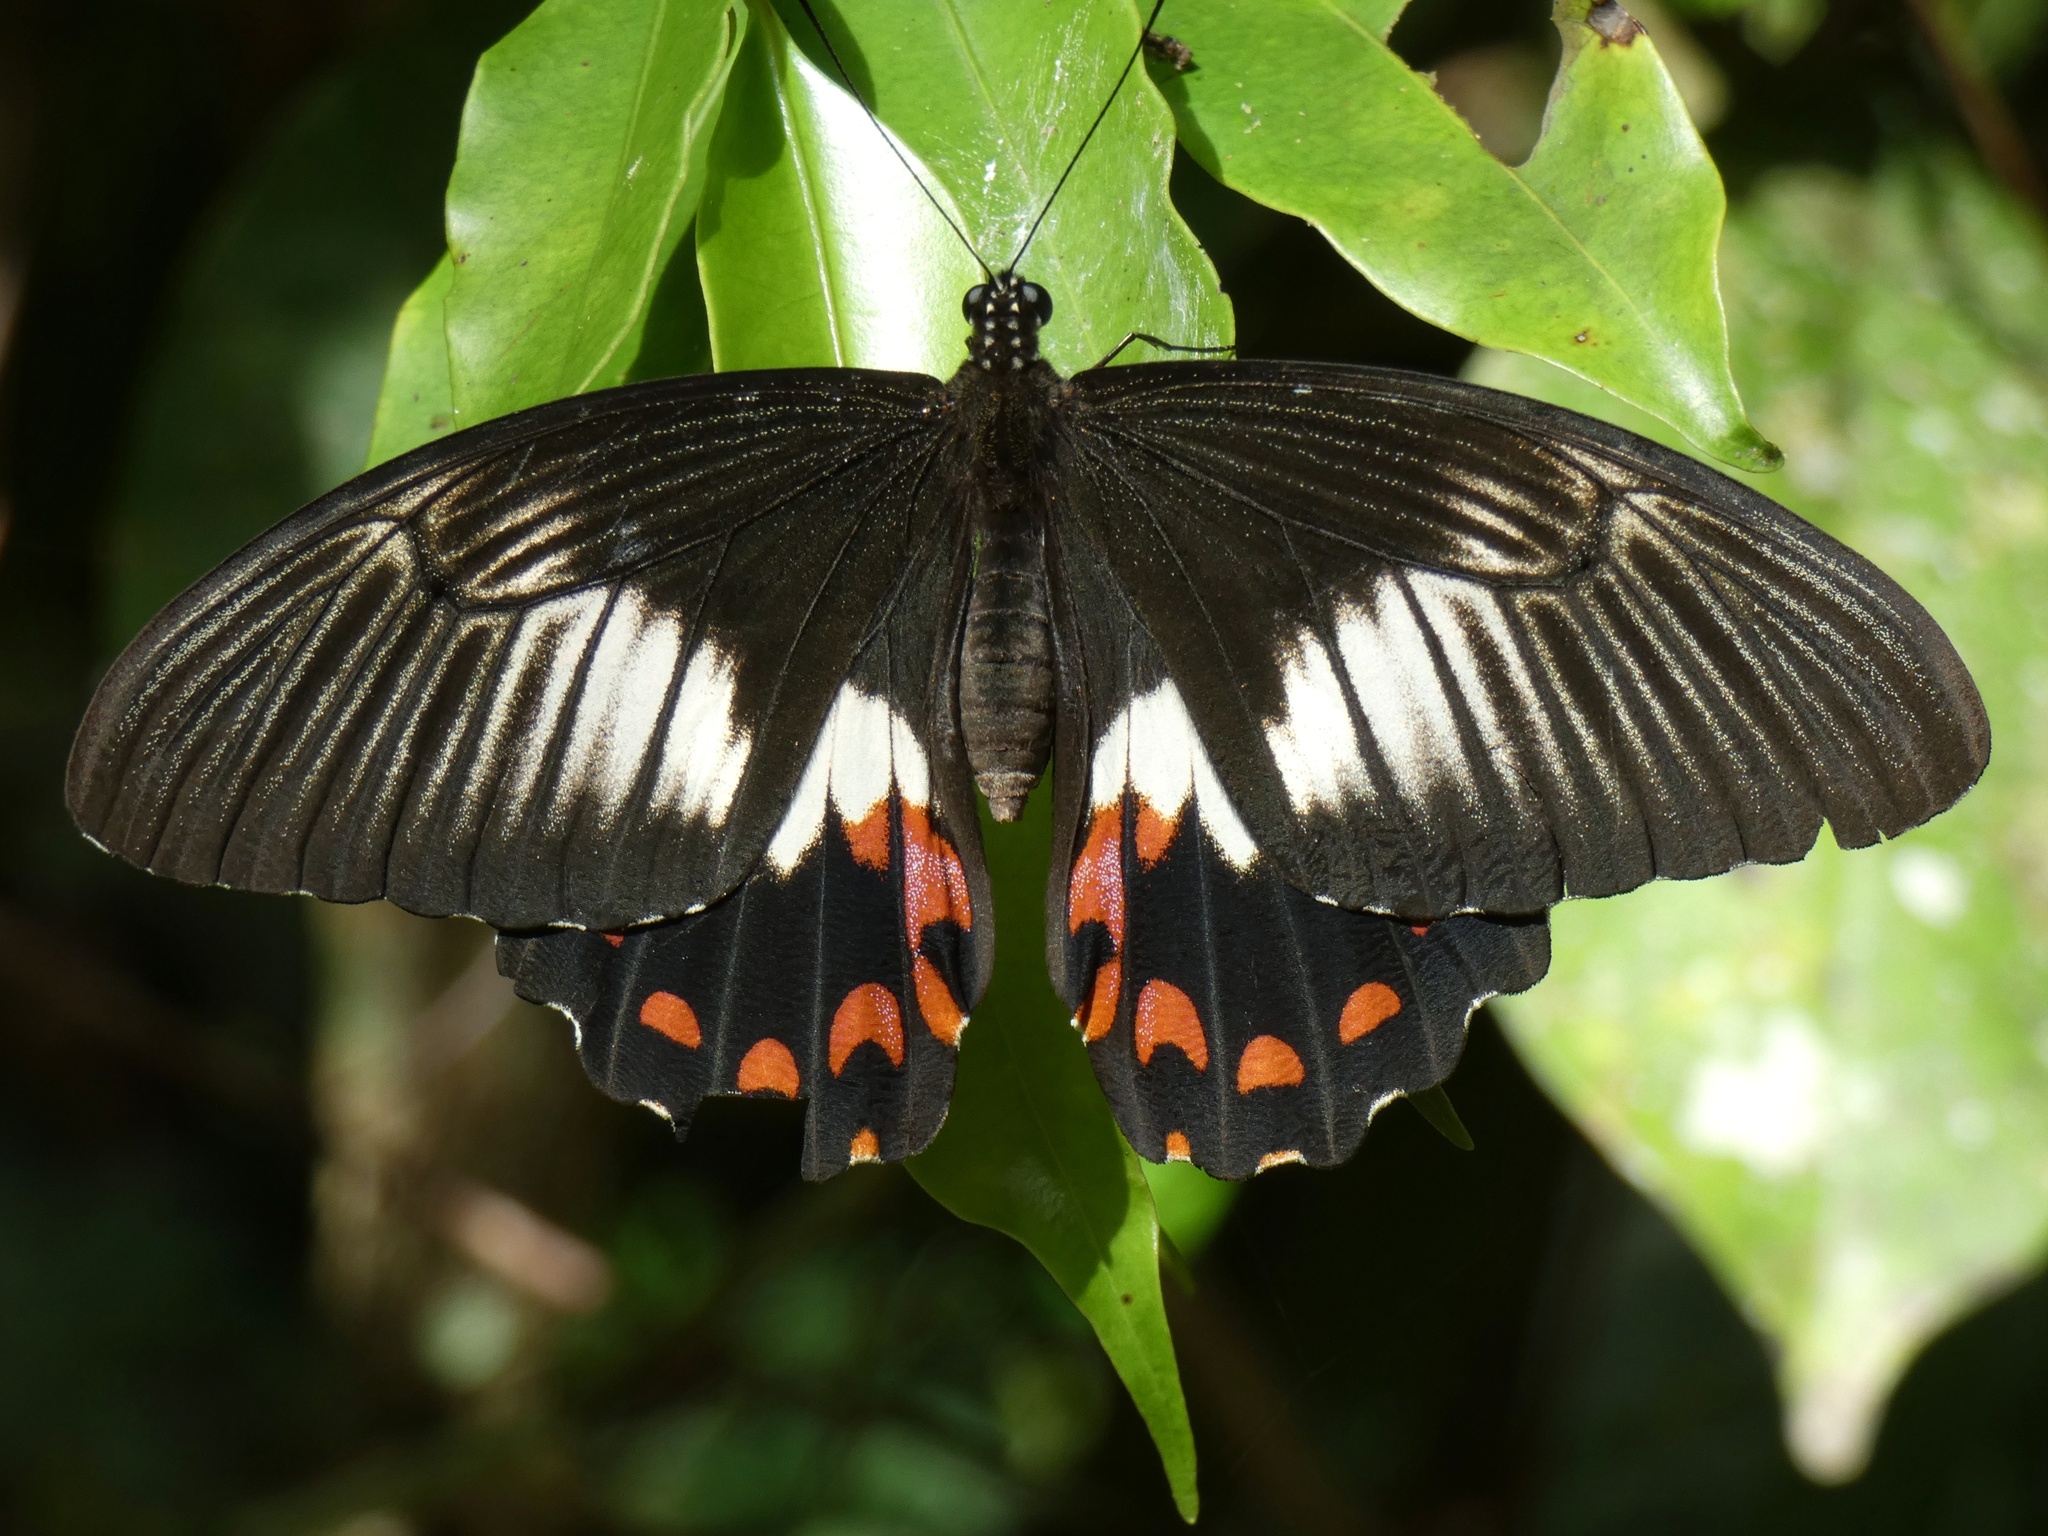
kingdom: Animalia
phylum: Arthropoda
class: Insecta
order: Lepidoptera
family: Papilionidae
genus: Papilio
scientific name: Papilio ambrax
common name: Ambrax butterfly
